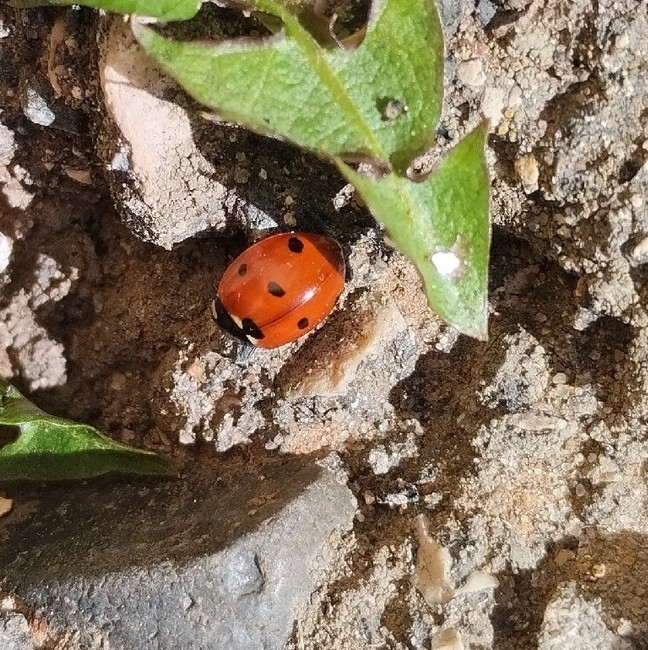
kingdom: Animalia
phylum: Arthropoda
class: Insecta
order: Coleoptera
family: Coccinellidae
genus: Coccinella
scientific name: Coccinella septempunctata
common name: Sevenspotted lady beetle
